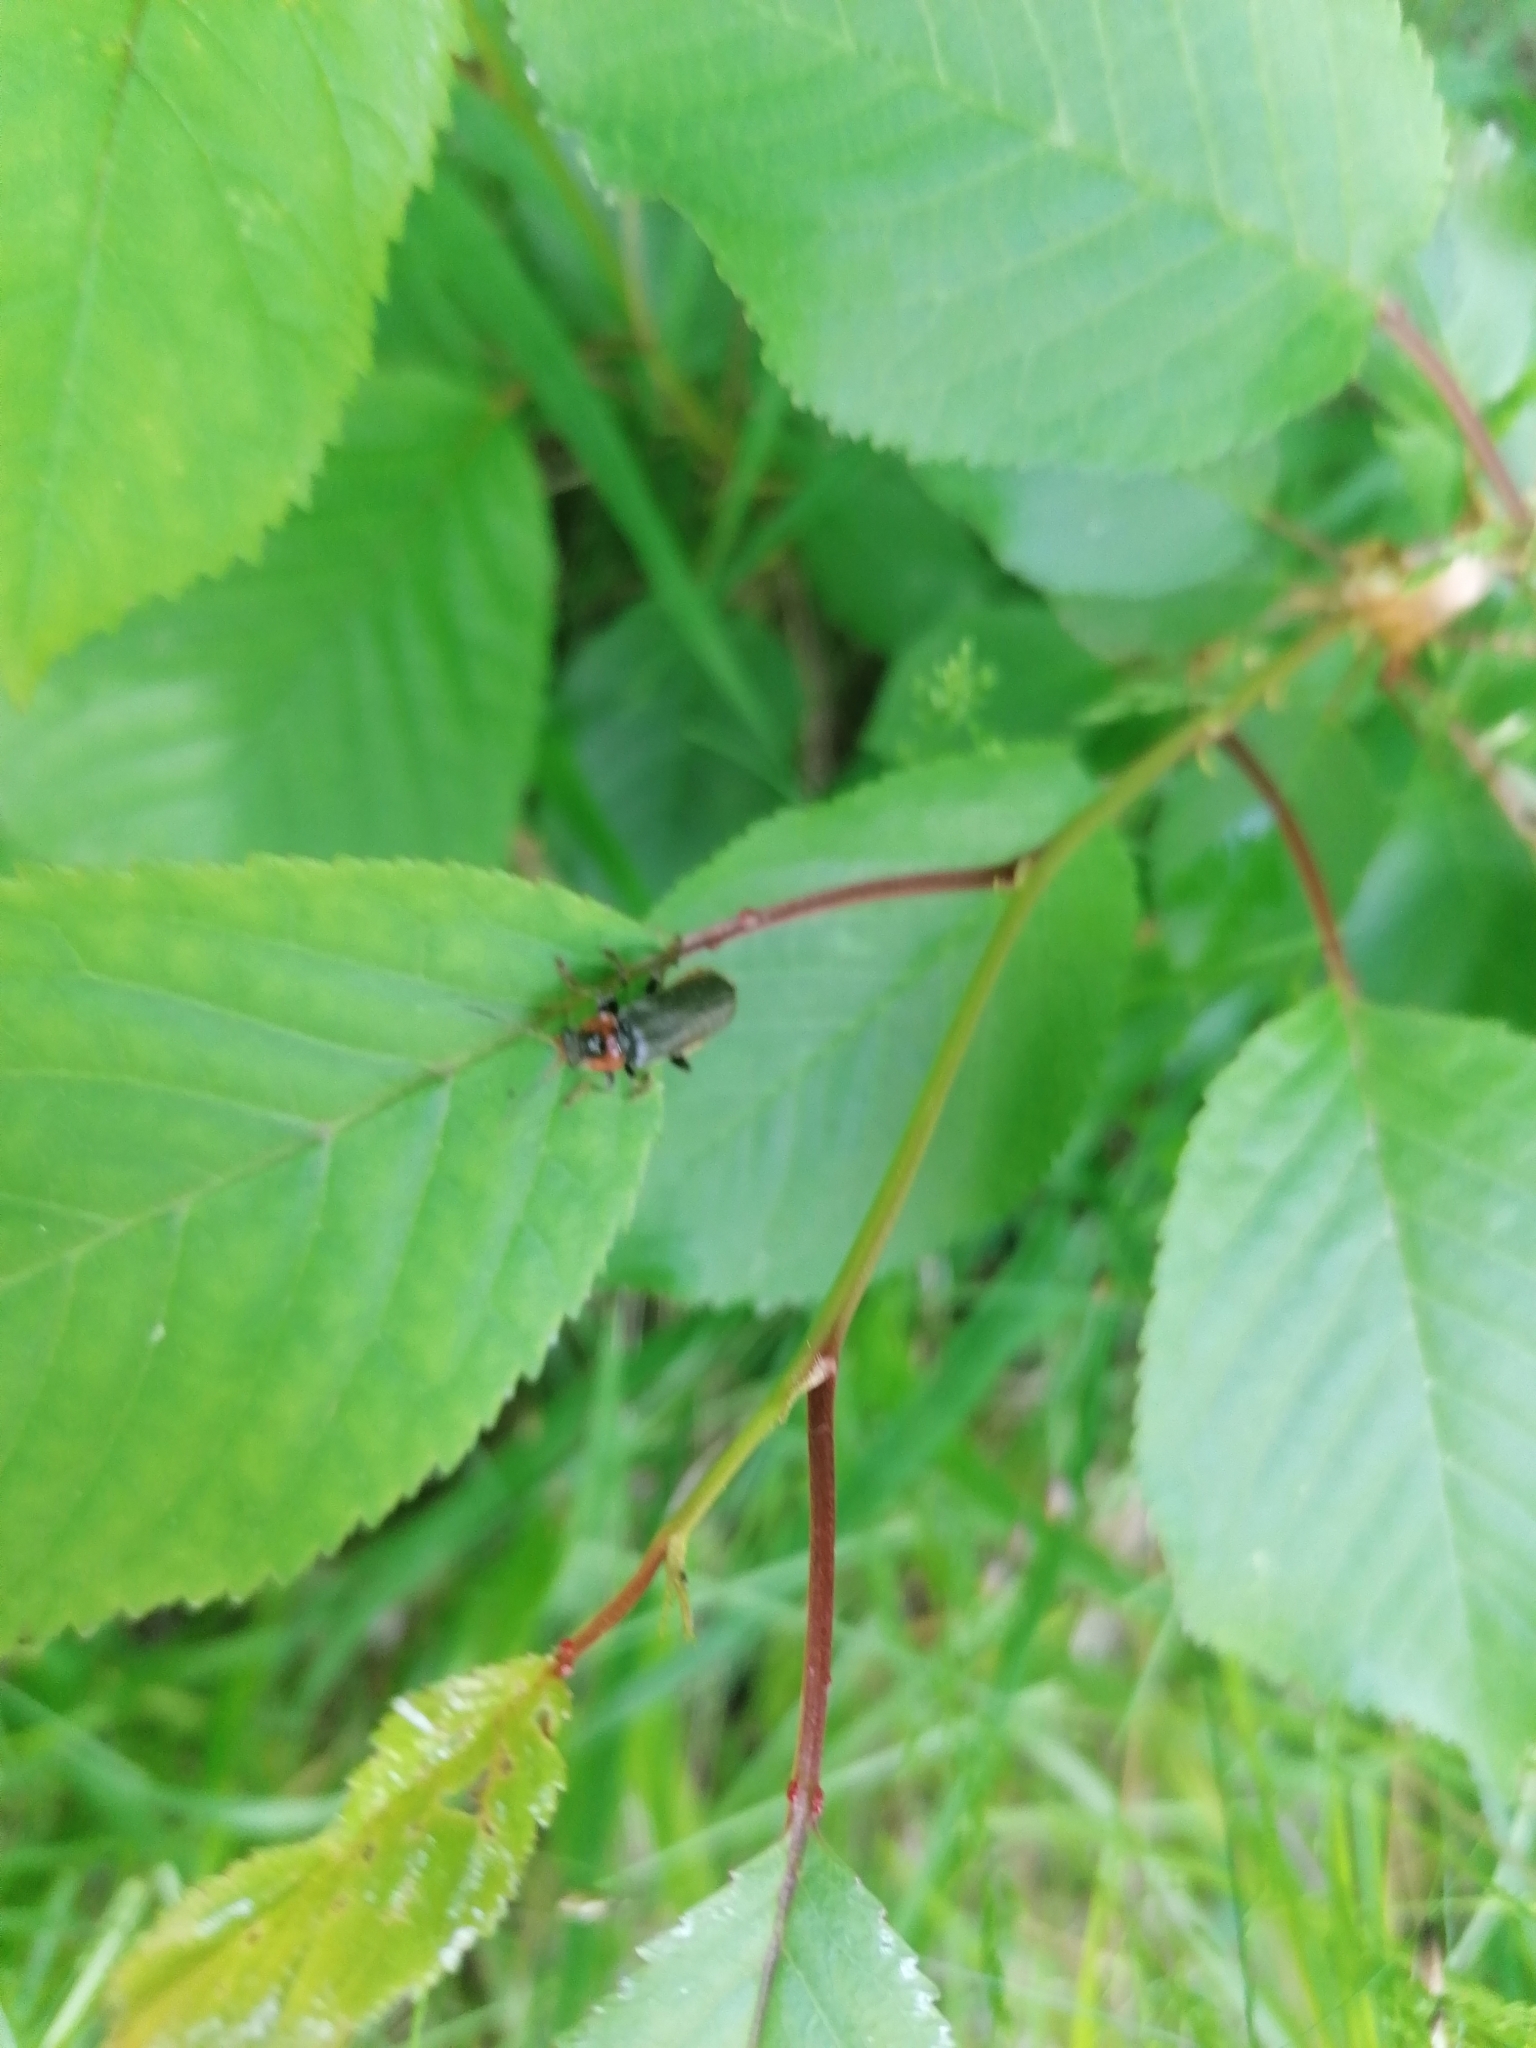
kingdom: Animalia
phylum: Arthropoda
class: Insecta
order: Coleoptera
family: Cantharidae
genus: Cantharis
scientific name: Cantharis fusca
